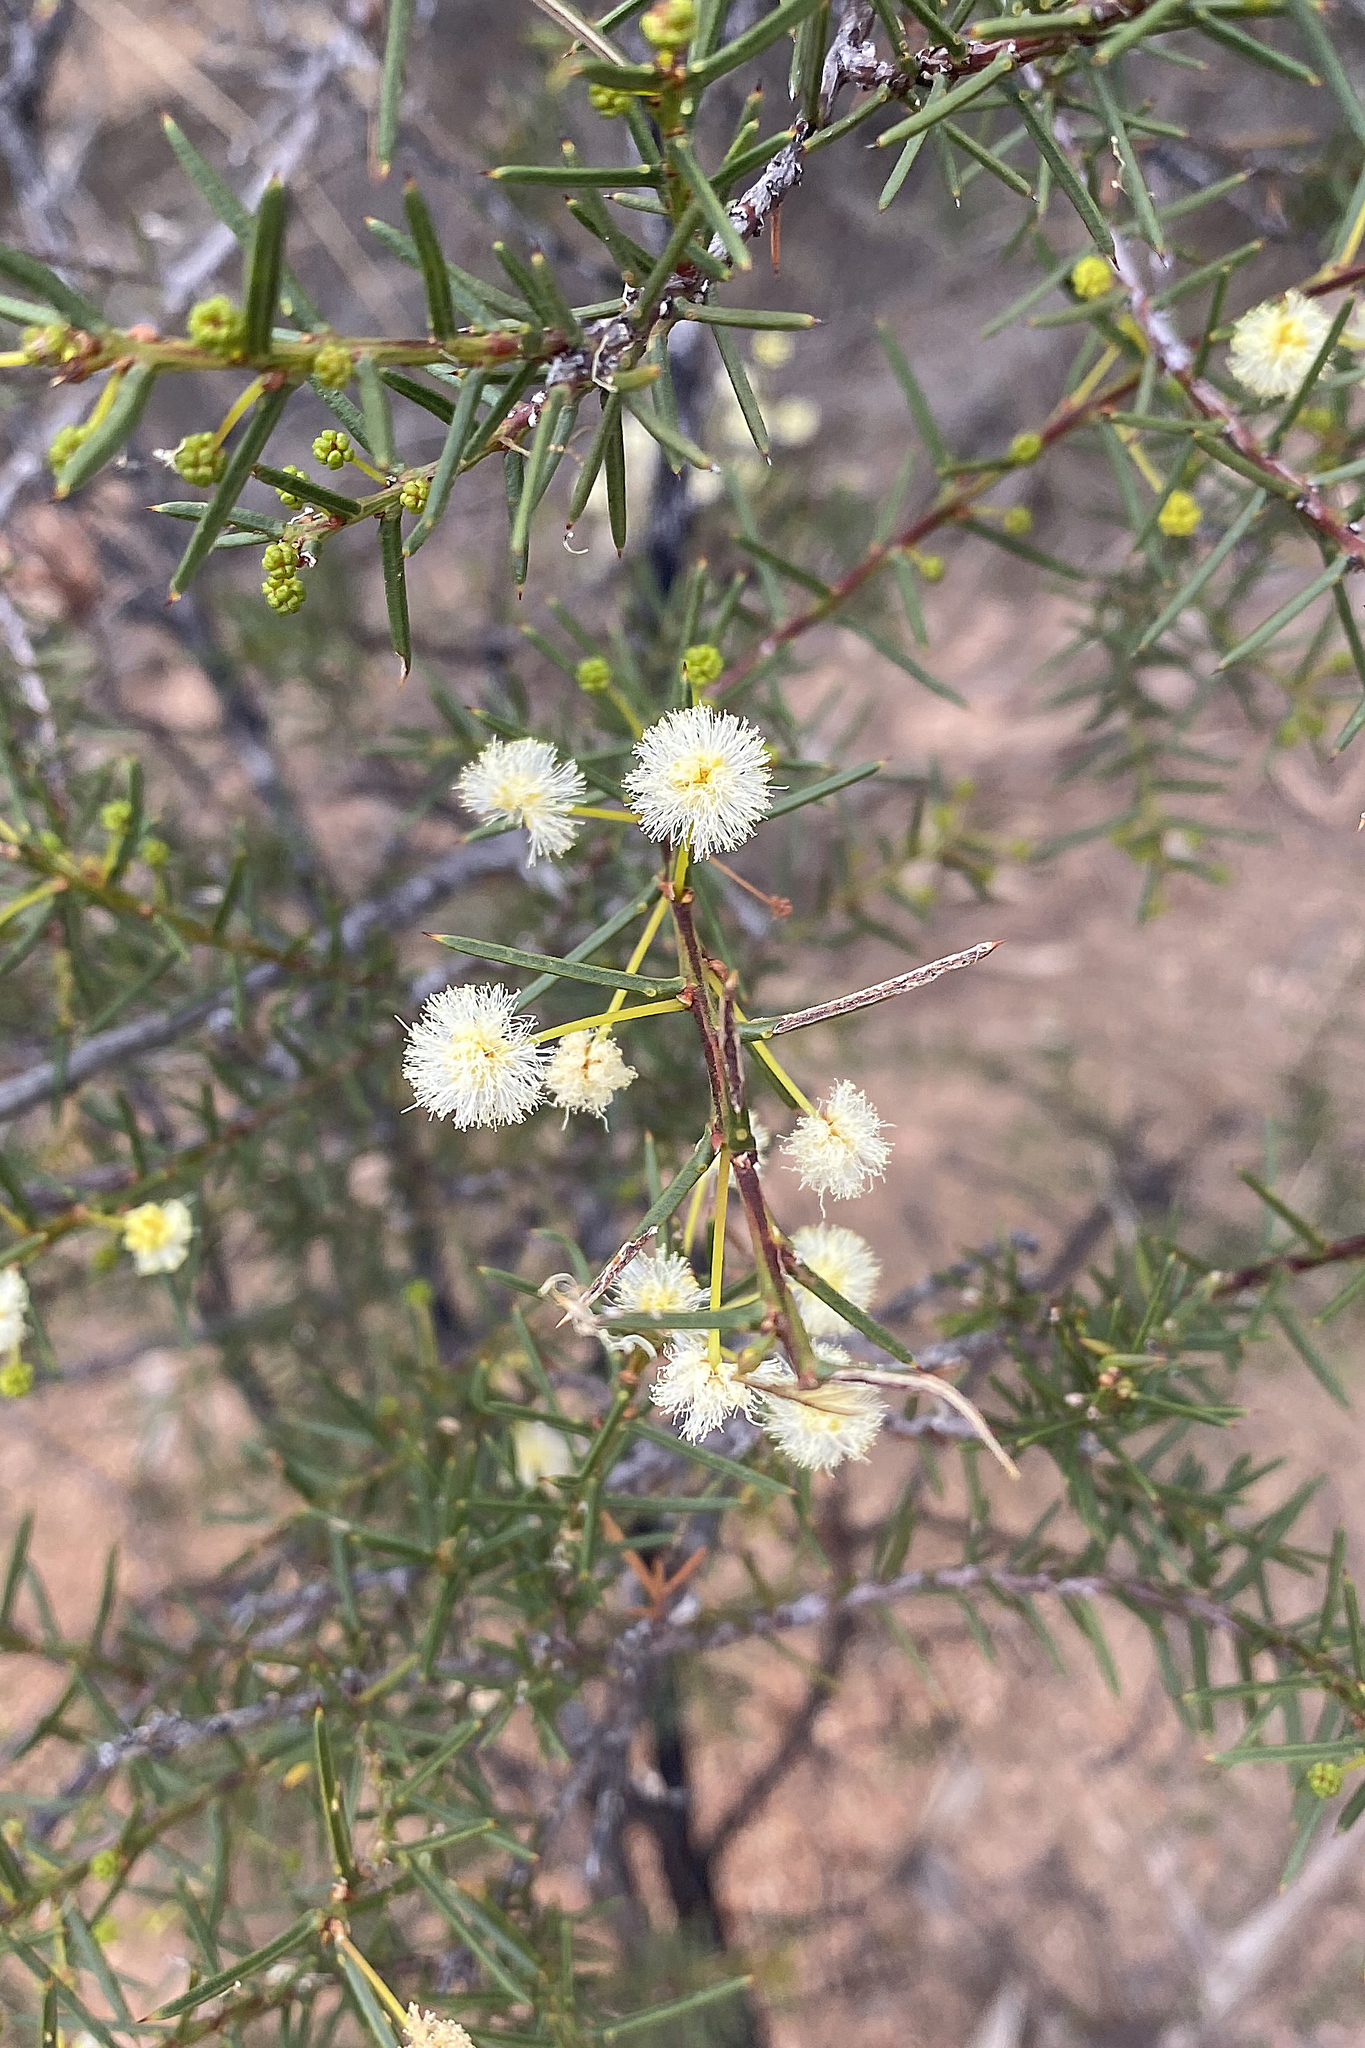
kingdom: Plantae
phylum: Tracheophyta
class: Magnoliopsida
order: Fabales
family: Fabaceae
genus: Acacia
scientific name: Acacia genistifolia
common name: Early wattle
